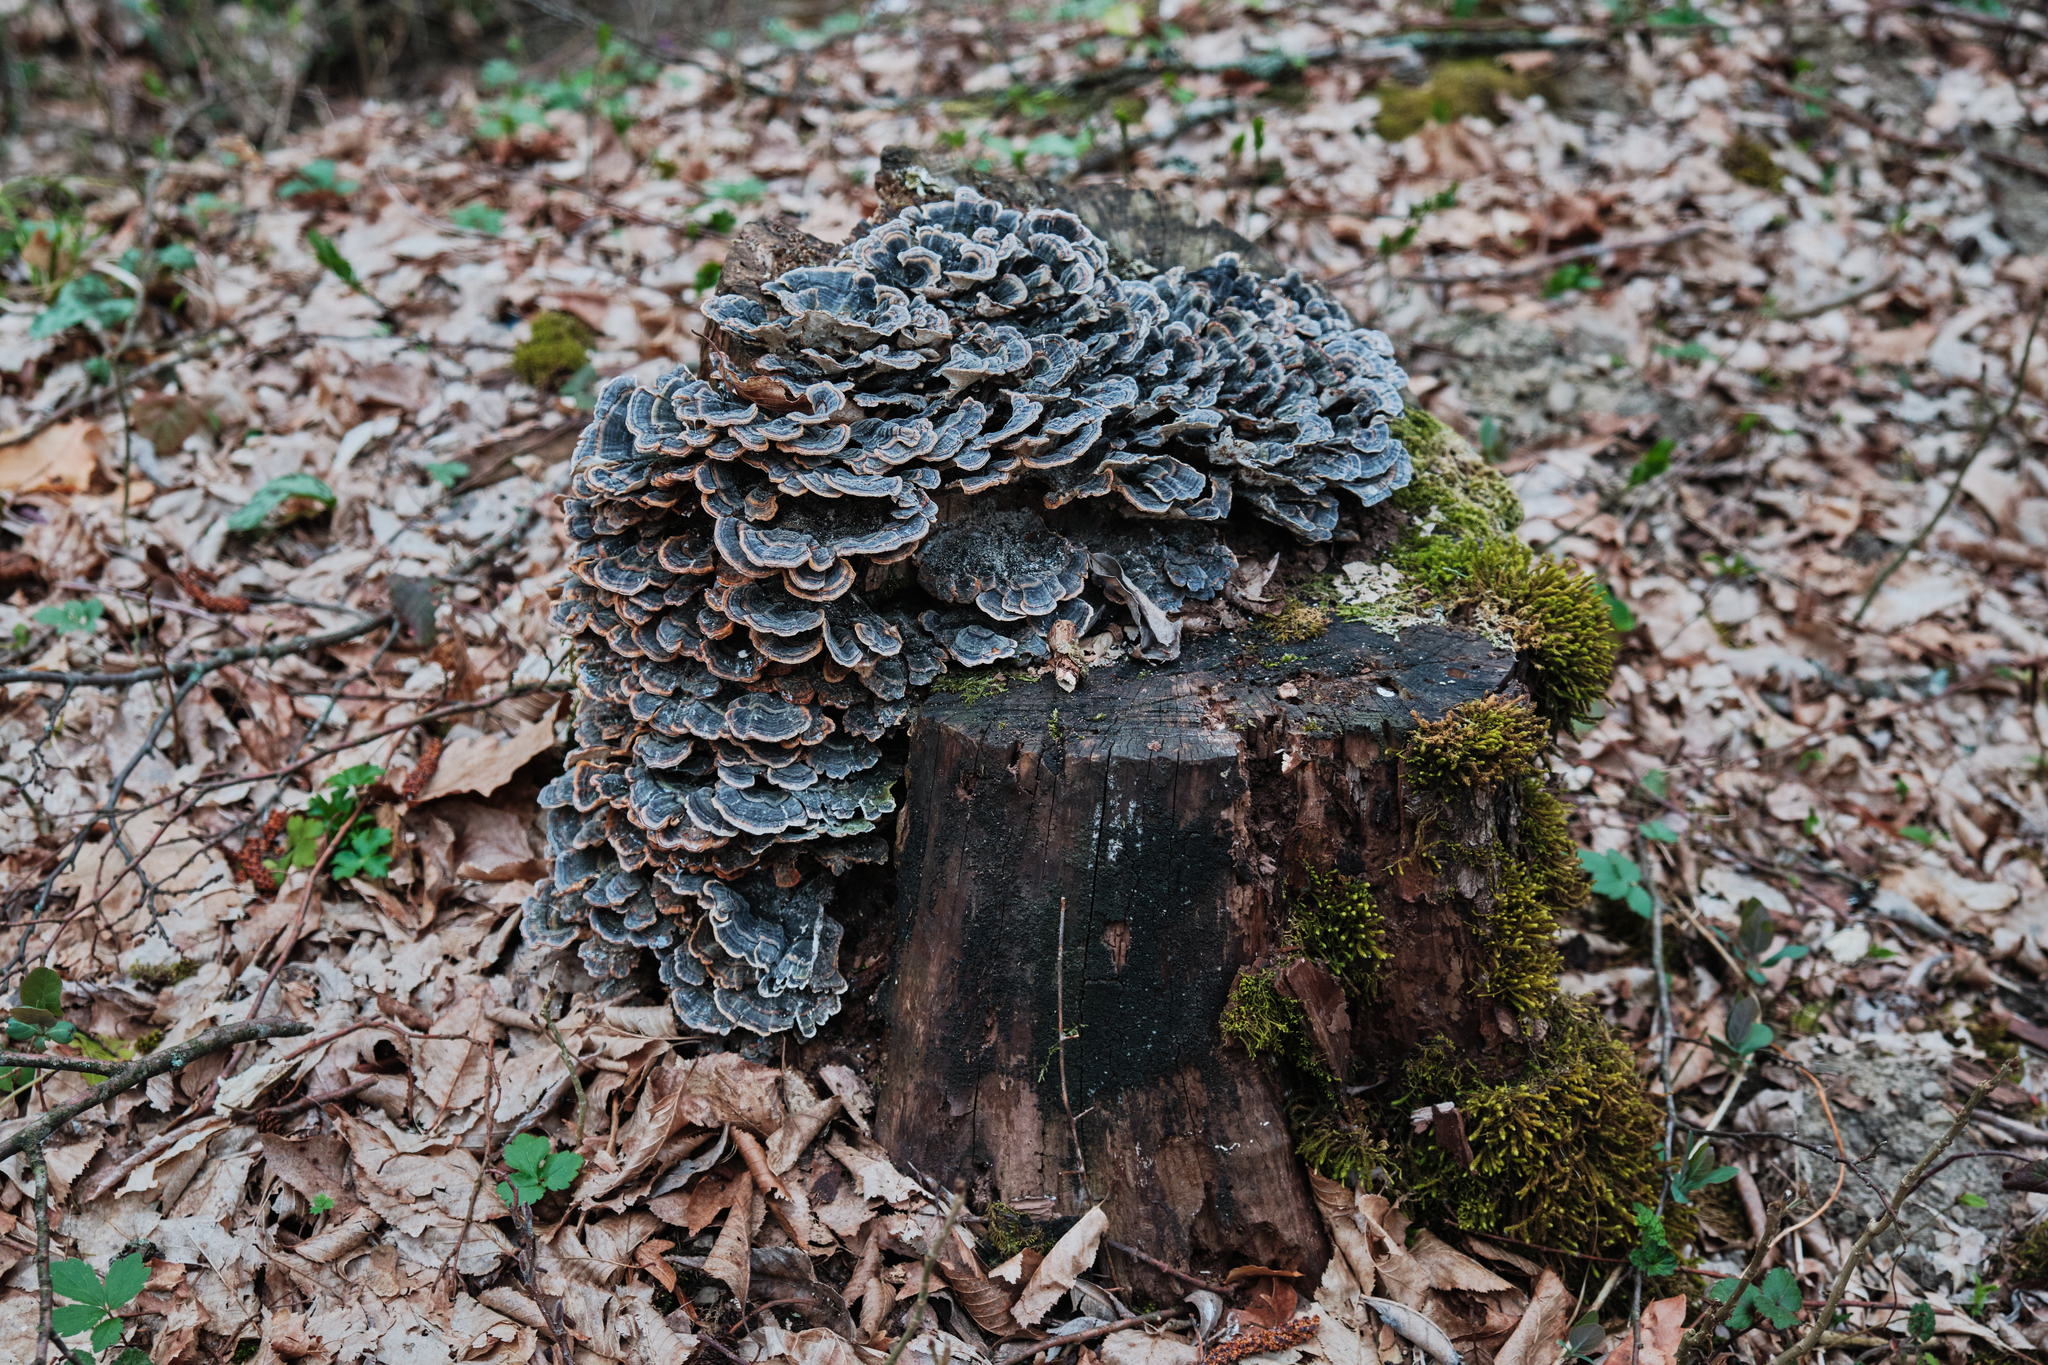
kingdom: Fungi
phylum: Basidiomycota
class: Agaricomycetes
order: Polyporales
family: Polyporaceae
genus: Trametes
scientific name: Trametes versicolor
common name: Turkeytail
